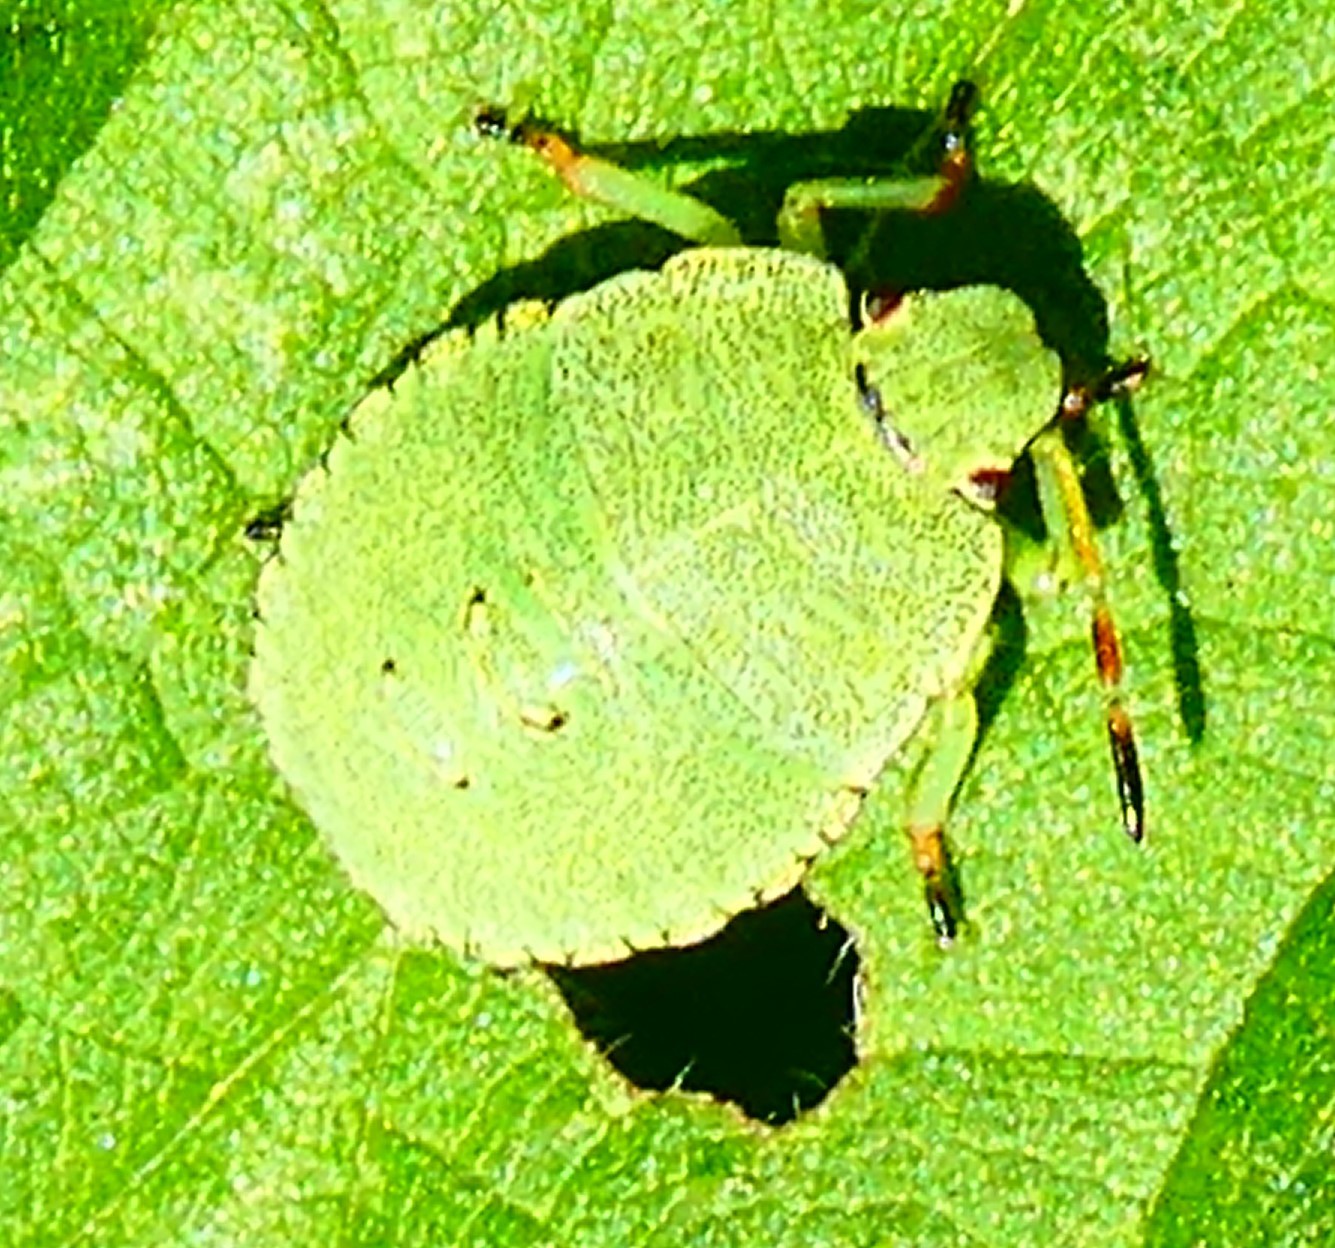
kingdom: Animalia
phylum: Arthropoda
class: Insecta
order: Hemiptera
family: Pentatomidae
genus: Palomena
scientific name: Palomena prasina
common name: Green shieldbug
